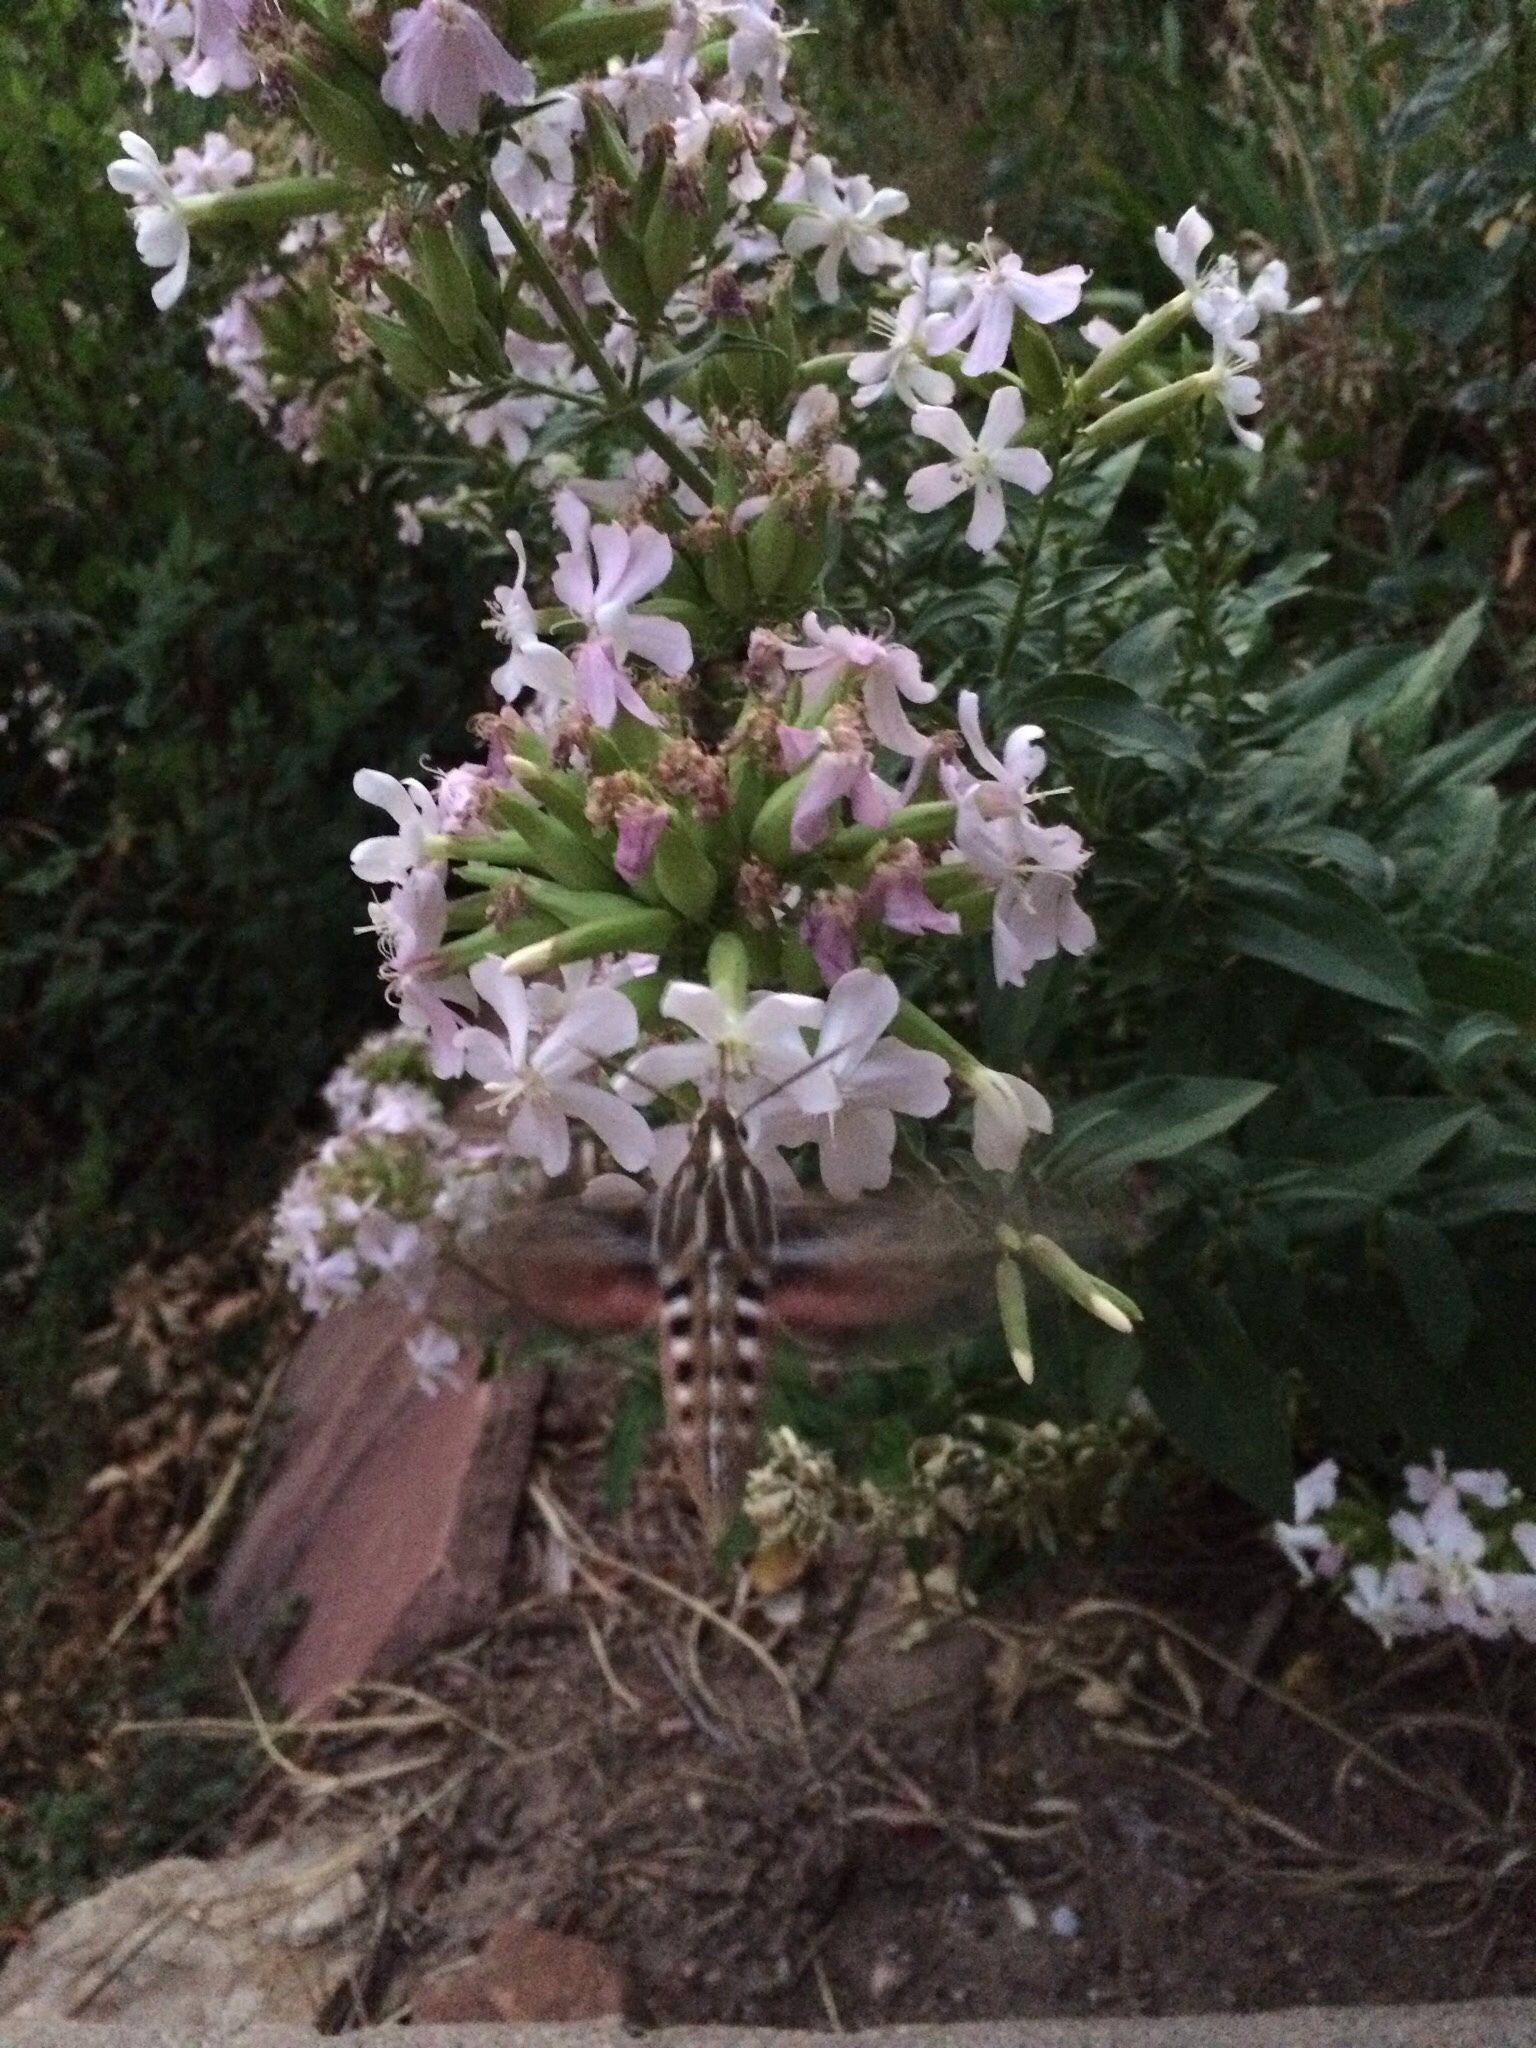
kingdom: Animalia
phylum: Arthropoda
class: Insecta
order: Lepidoptera
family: Sphingidae
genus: Hyles
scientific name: Hyles lineata
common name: White-lined sphinx
